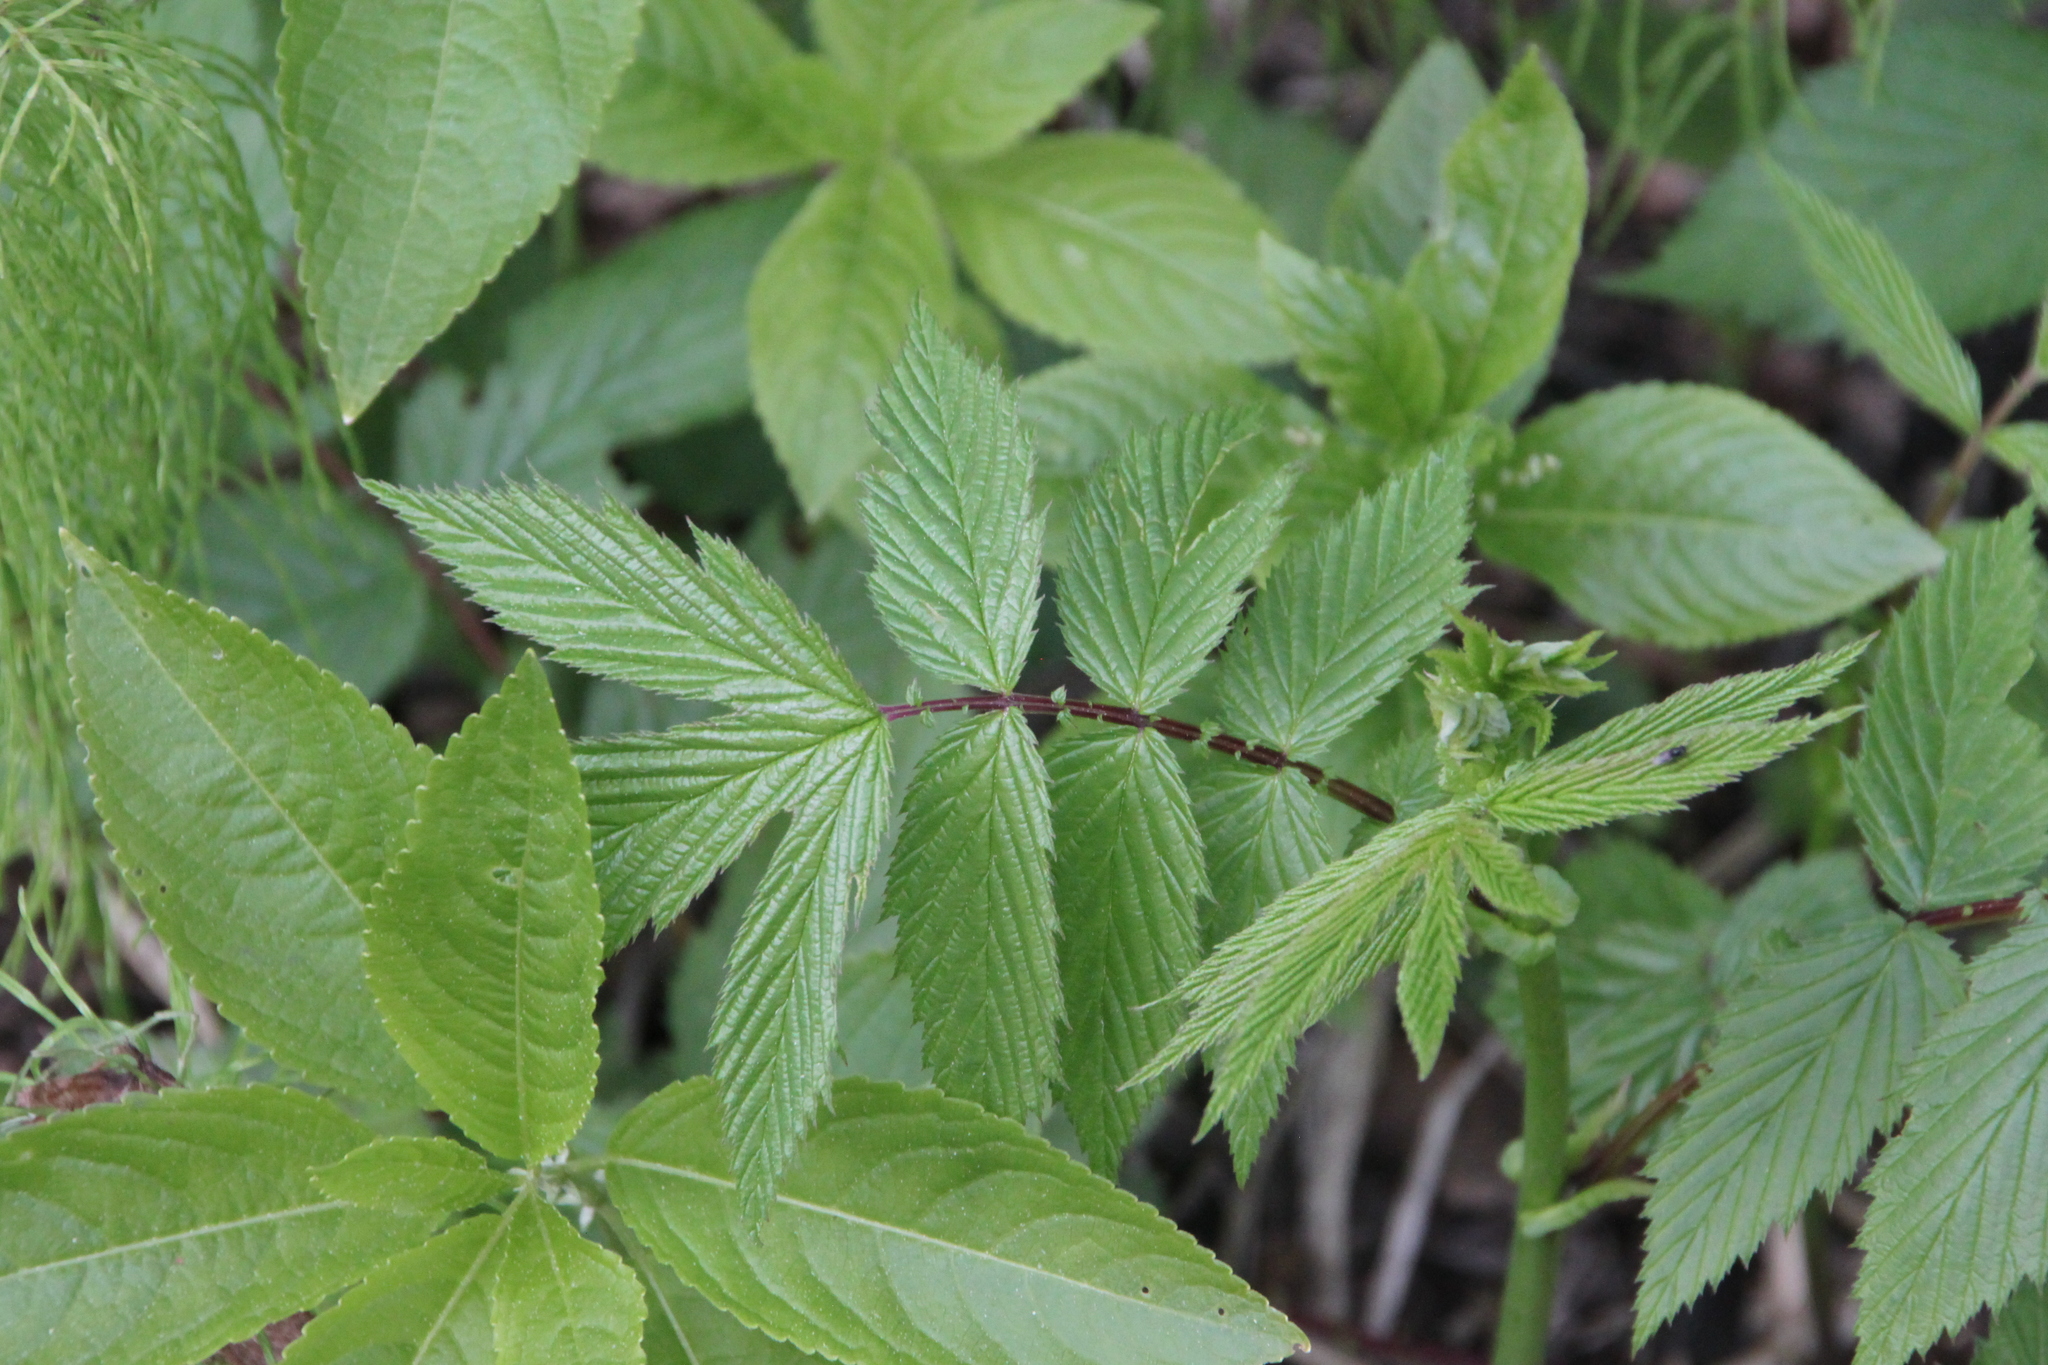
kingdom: Plantae
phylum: Tracheophyta
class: Magnoliopsida
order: Rosales
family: Rosaceae
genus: Filipendula
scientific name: Filipendula ulmaria
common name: Meadowsweet
